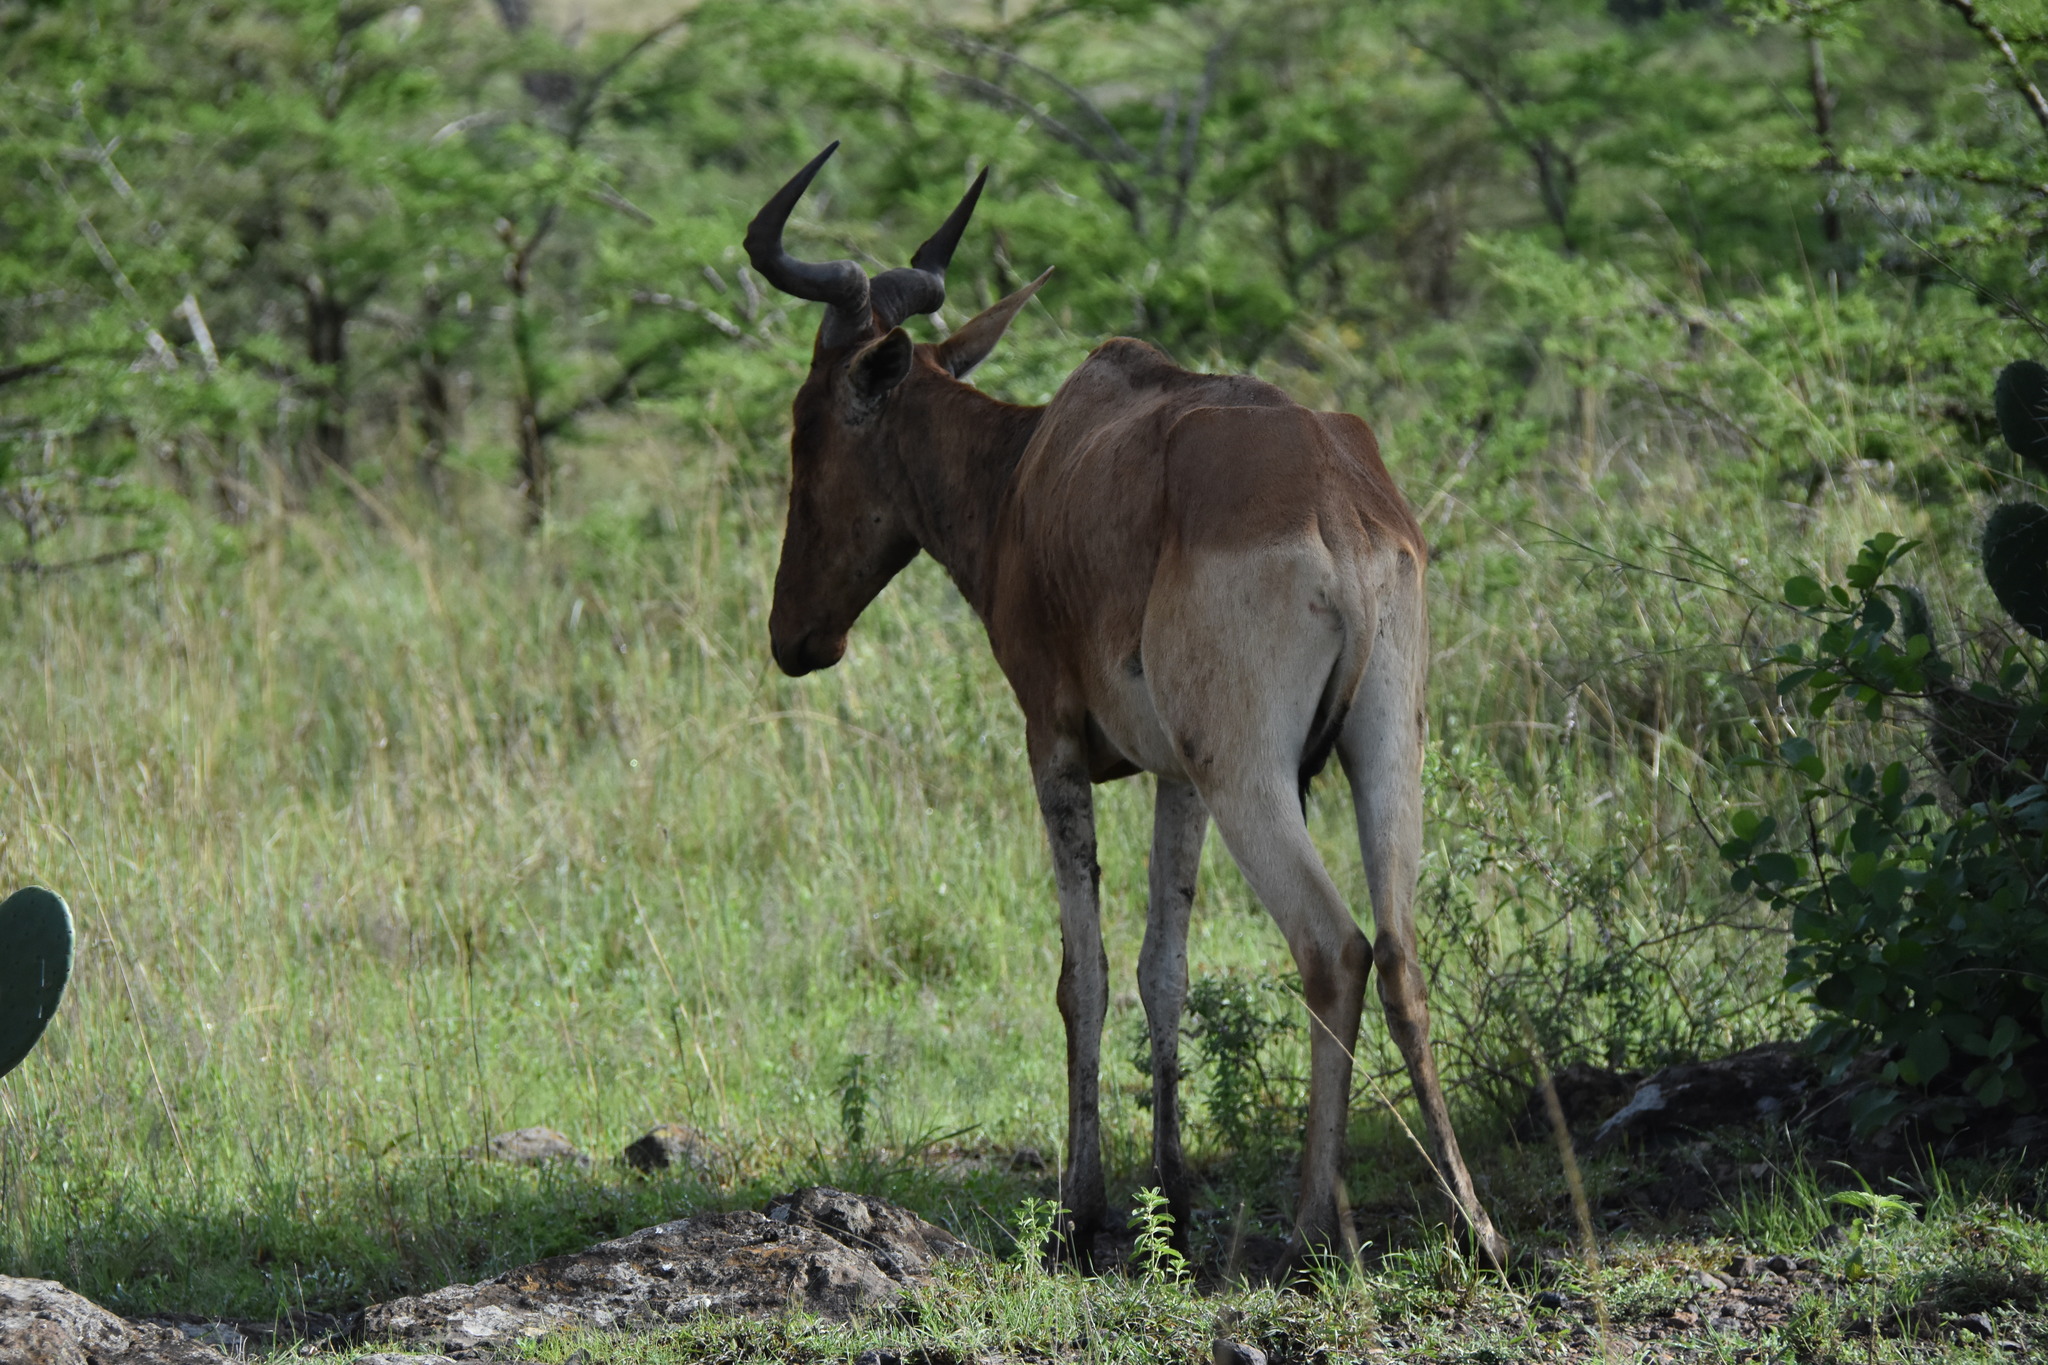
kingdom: Animalia
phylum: Chordata
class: Mammalia
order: Artiodactyla
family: Bovidae
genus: Alcelaphus
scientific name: Alcelaphus buselaphus
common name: Hartebeest
